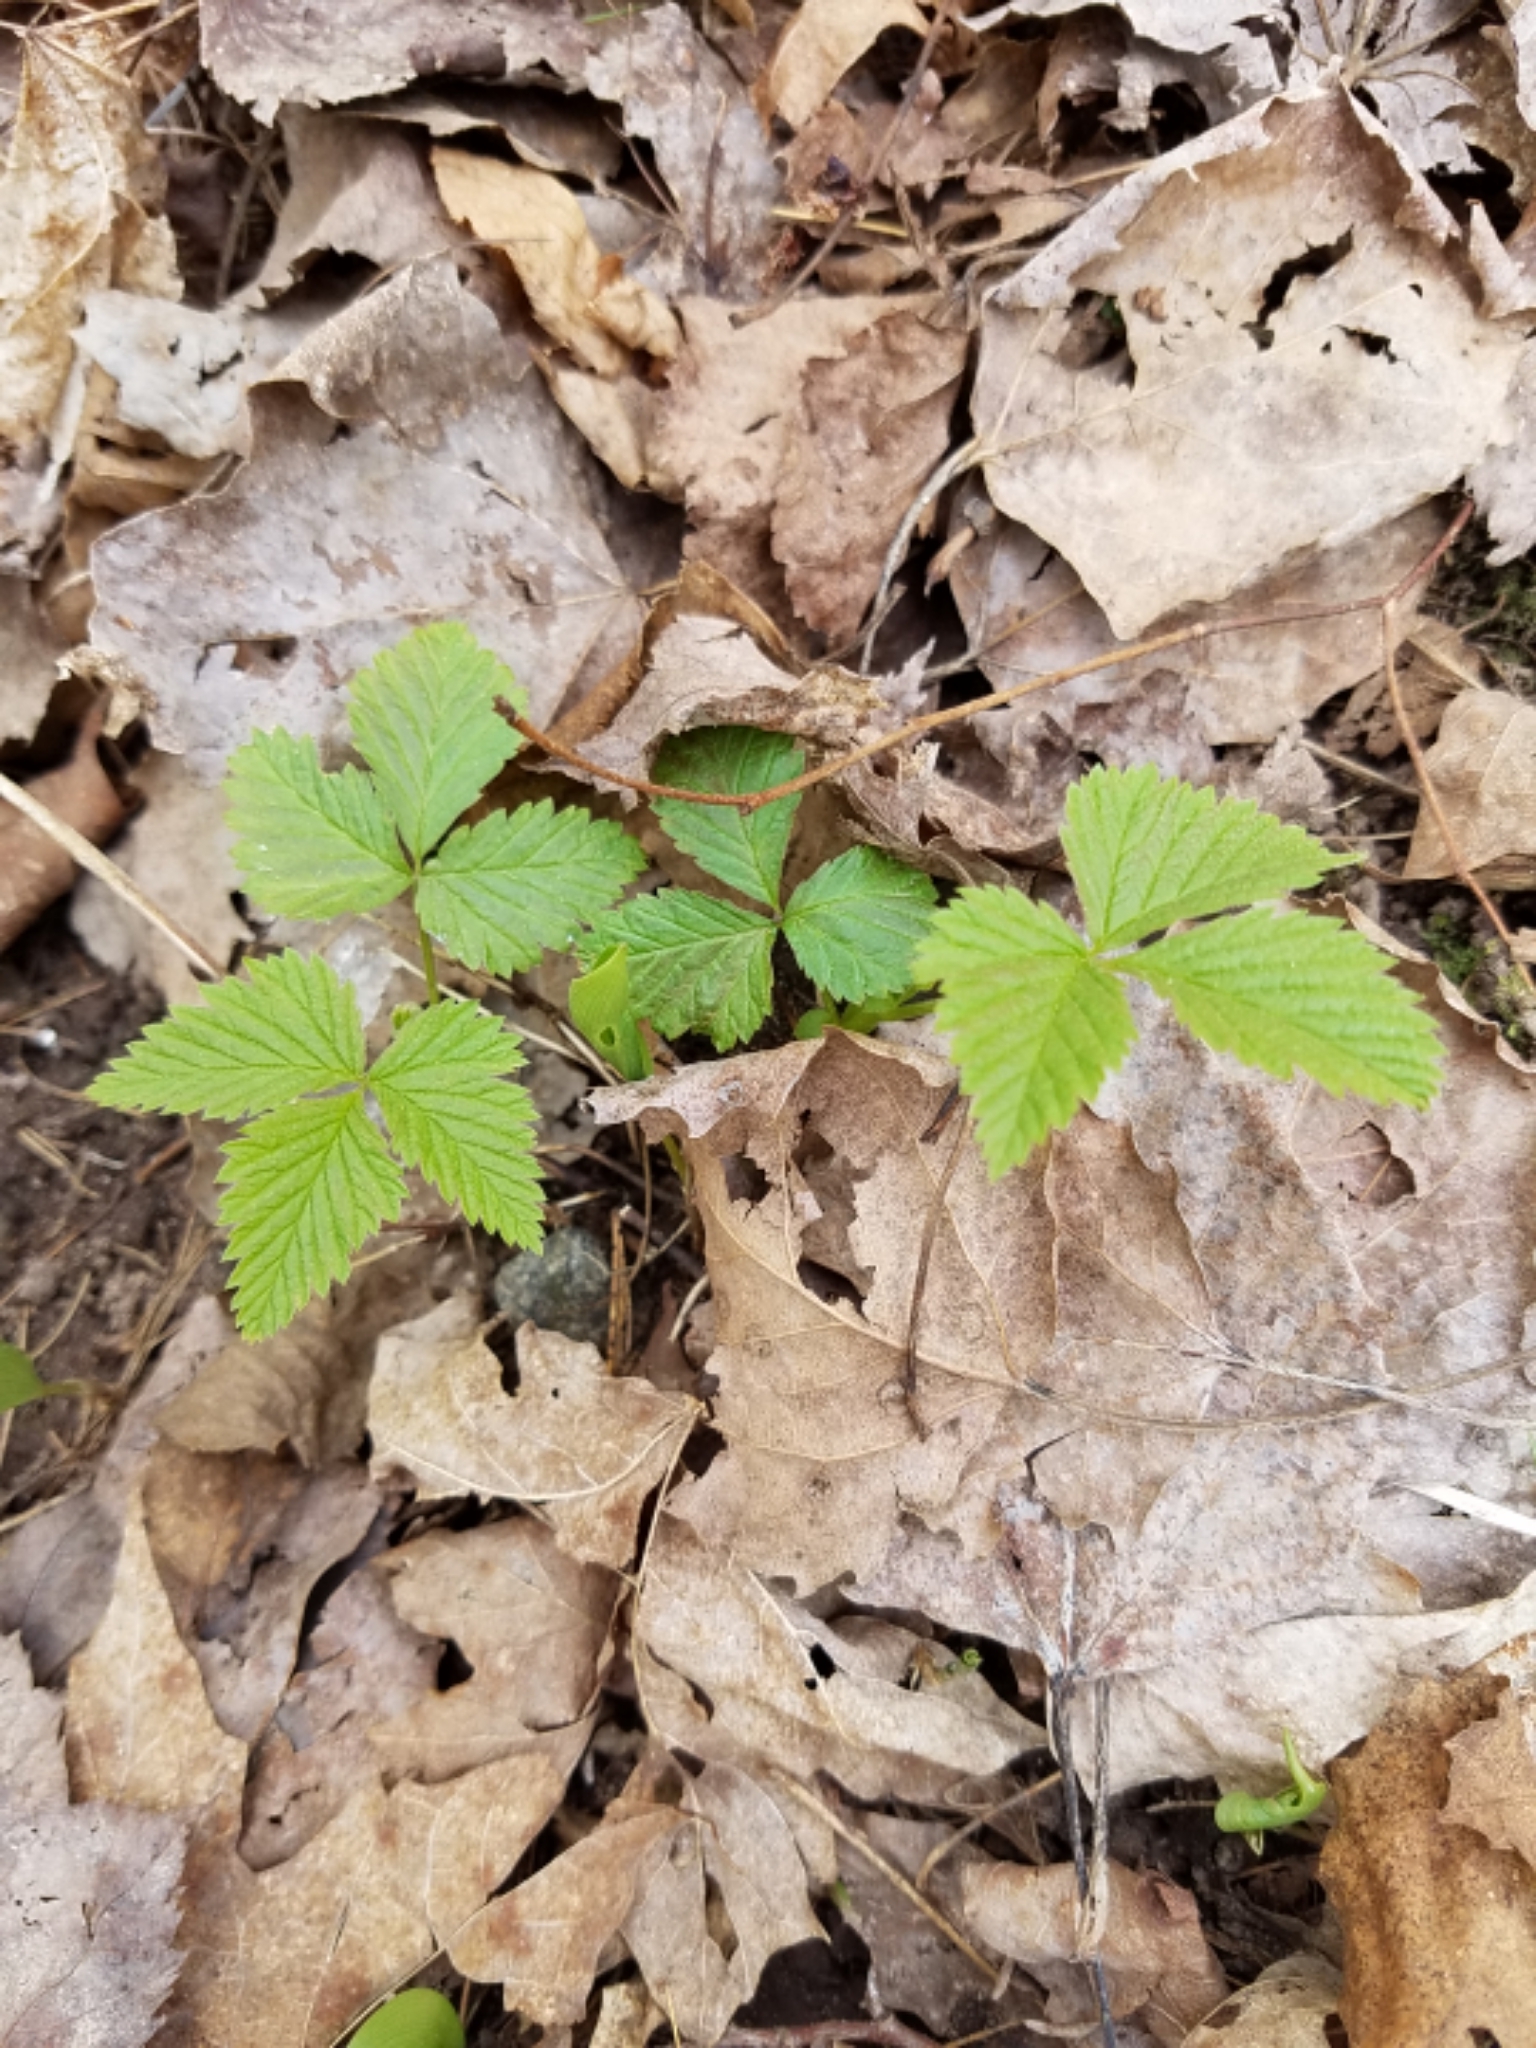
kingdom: Plantae
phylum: Tracheophyta
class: Magnoliopsida
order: Rosales
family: Rosaceae
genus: Rubus
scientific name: Rubus pubescens
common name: Dwarf raspberry
